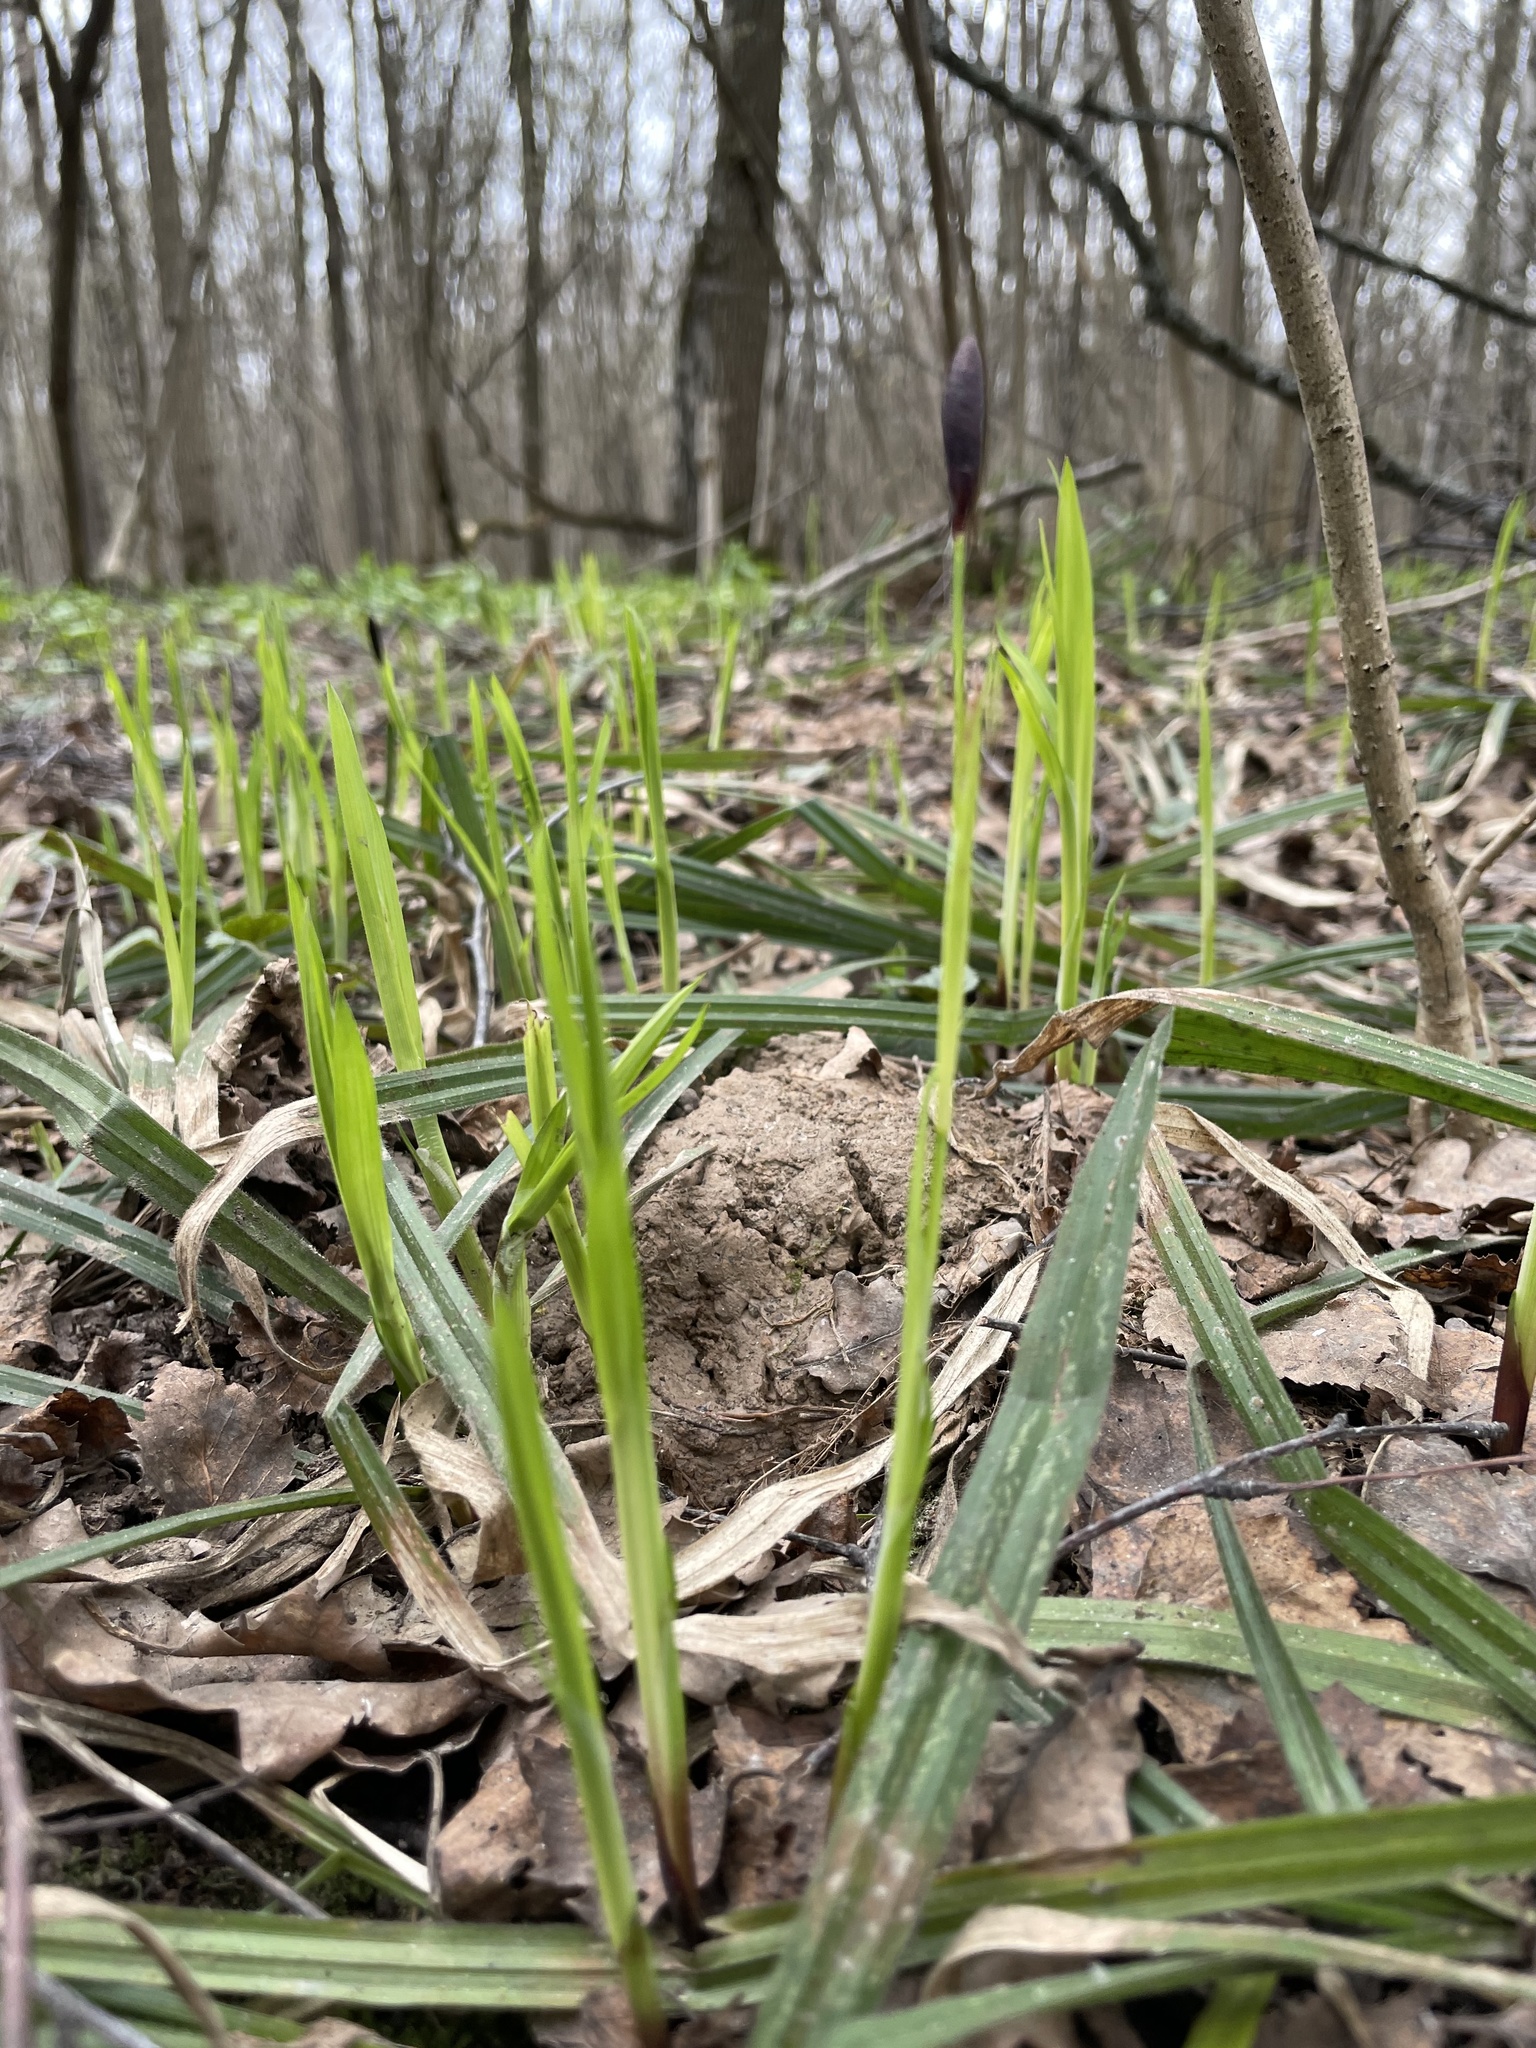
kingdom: Plantae
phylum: Tracheophyta
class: Liliopsida
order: Poales
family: Cyperaceae
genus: Carex
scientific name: Carex pilosa
